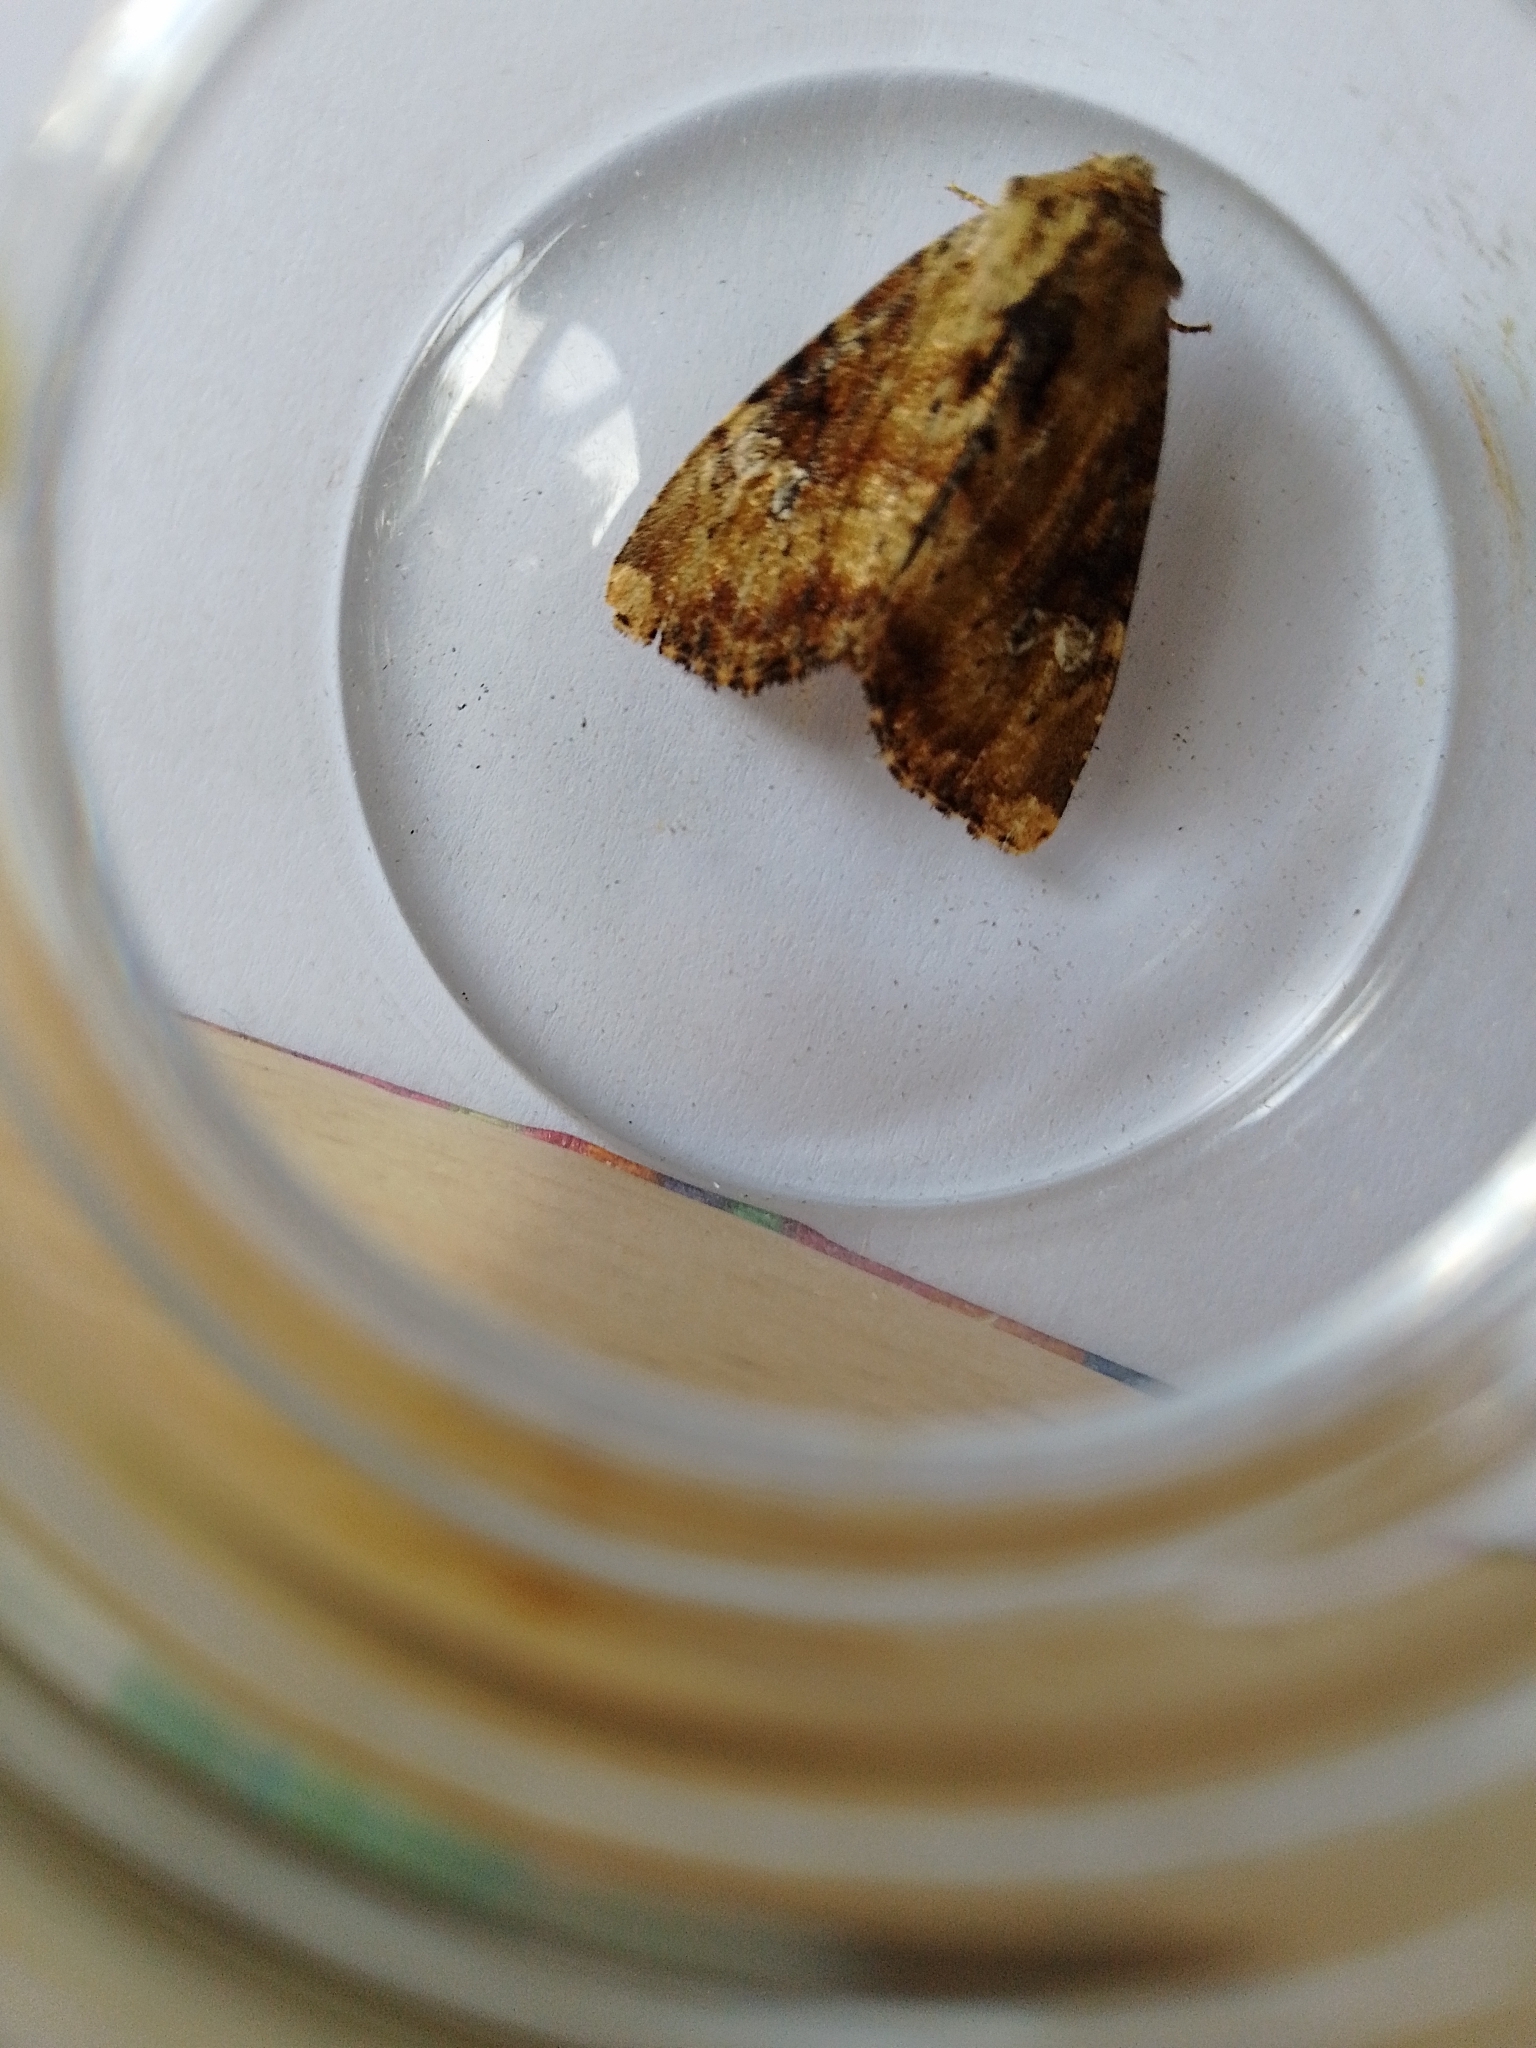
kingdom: Animalia
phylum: Arthropoda
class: Insecta
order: Lepidoptera
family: Noctuidae
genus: Loscopia
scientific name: Loscopia scolopacina
